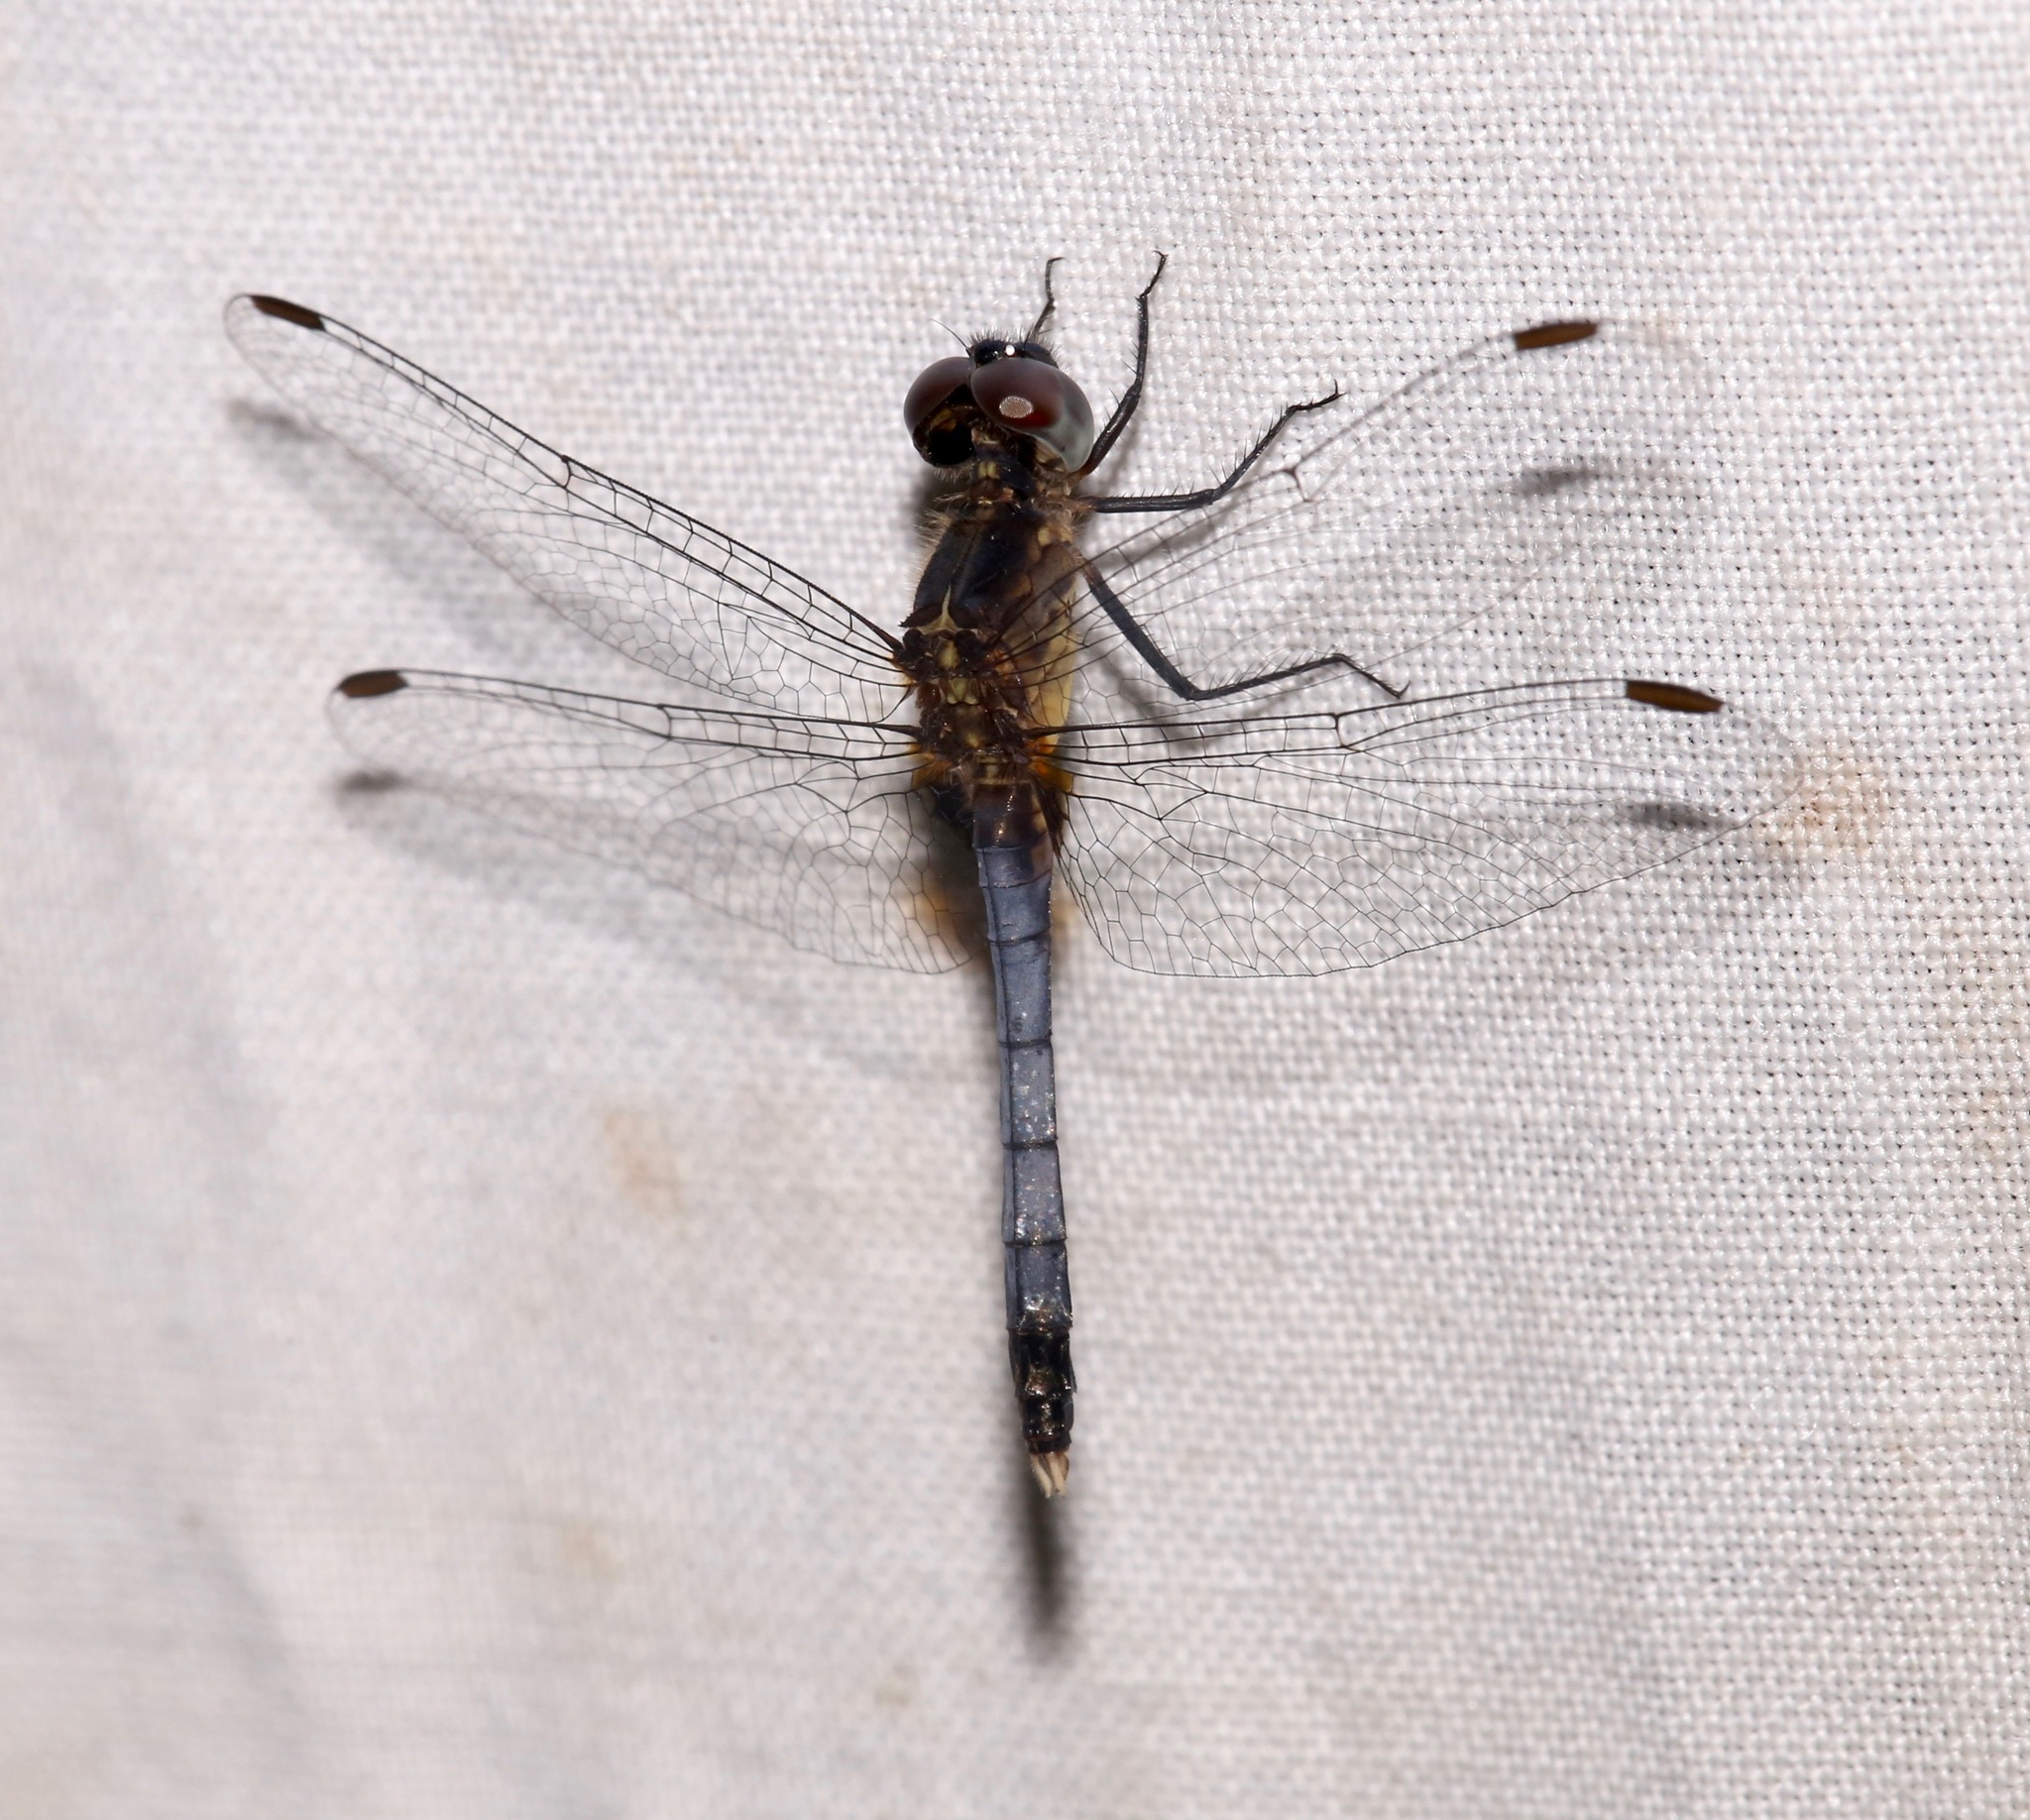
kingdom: Animalia
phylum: Arthropoda
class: Insecta
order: Odonata
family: Libellulidae
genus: Erythrodiplax
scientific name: Erythrodiplax minuscula
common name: Little blue dragonlet
